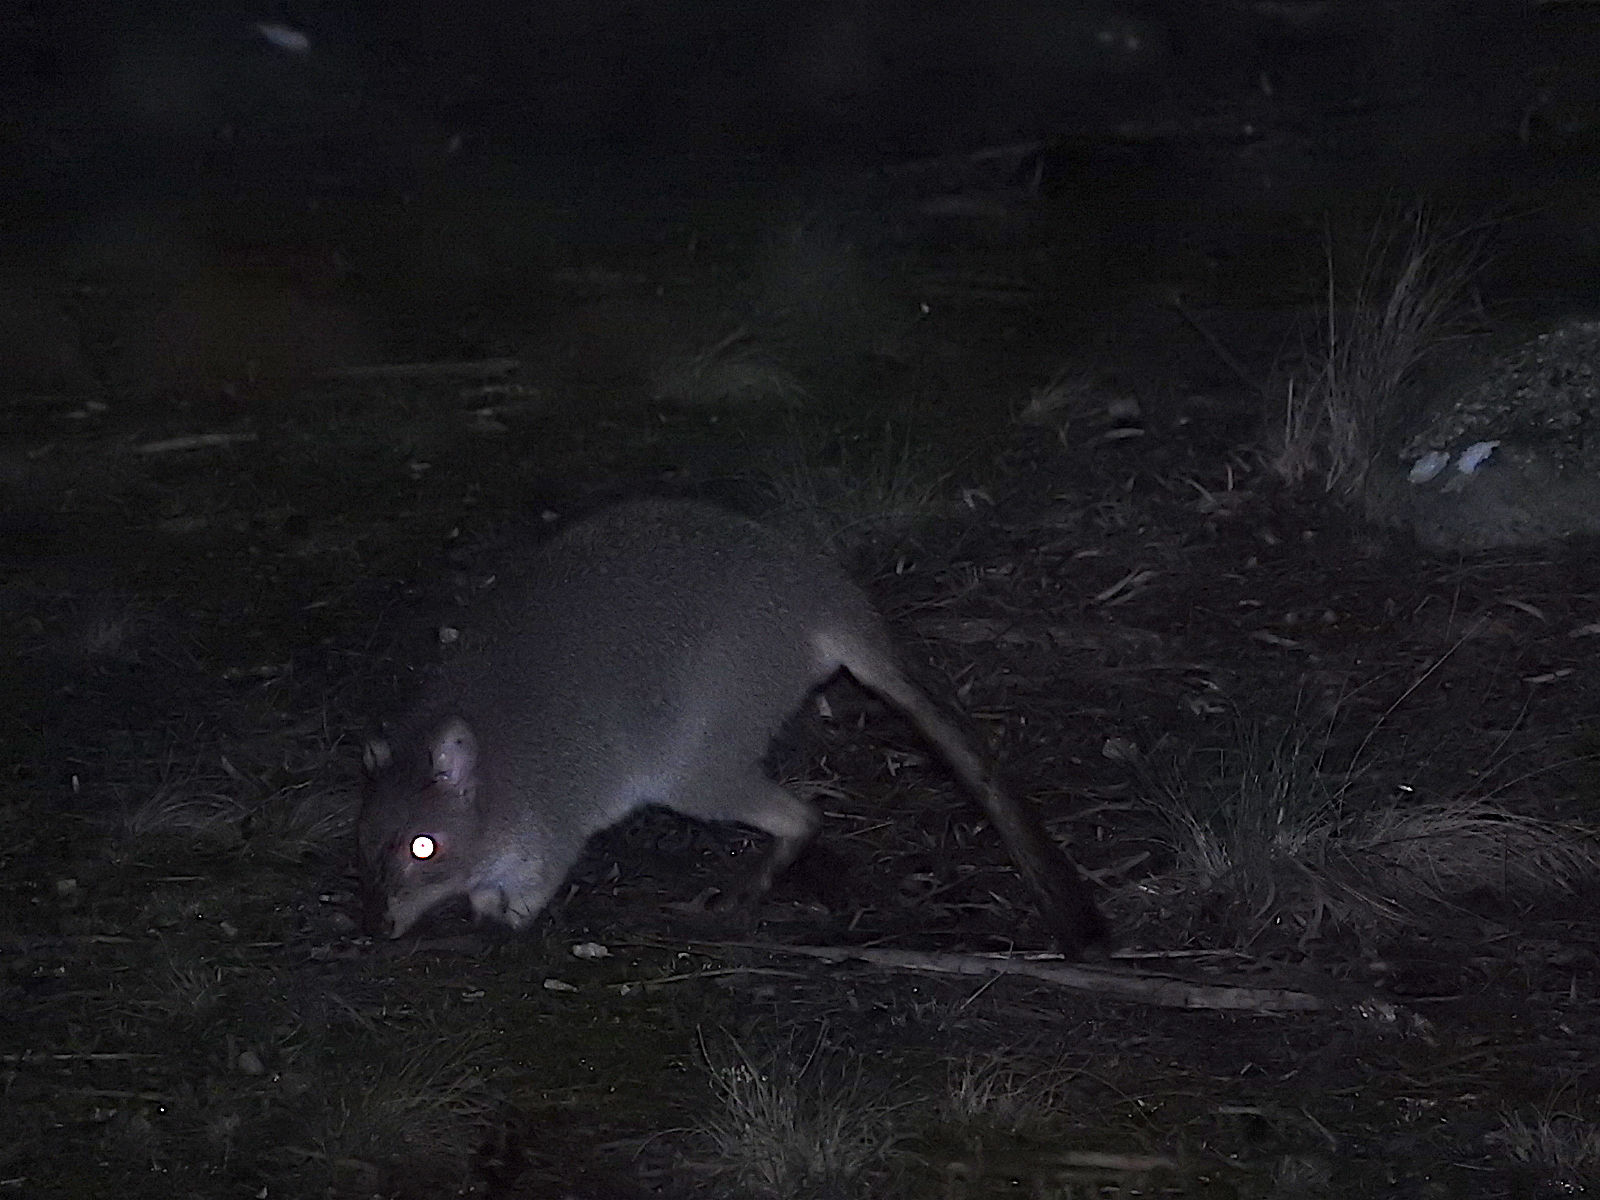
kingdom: Animalia
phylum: Chordata
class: Mammalia
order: Diprotodontia
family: Potoroidae
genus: Bettongia
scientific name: Bettongia gaimardi
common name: Eastern bettong
